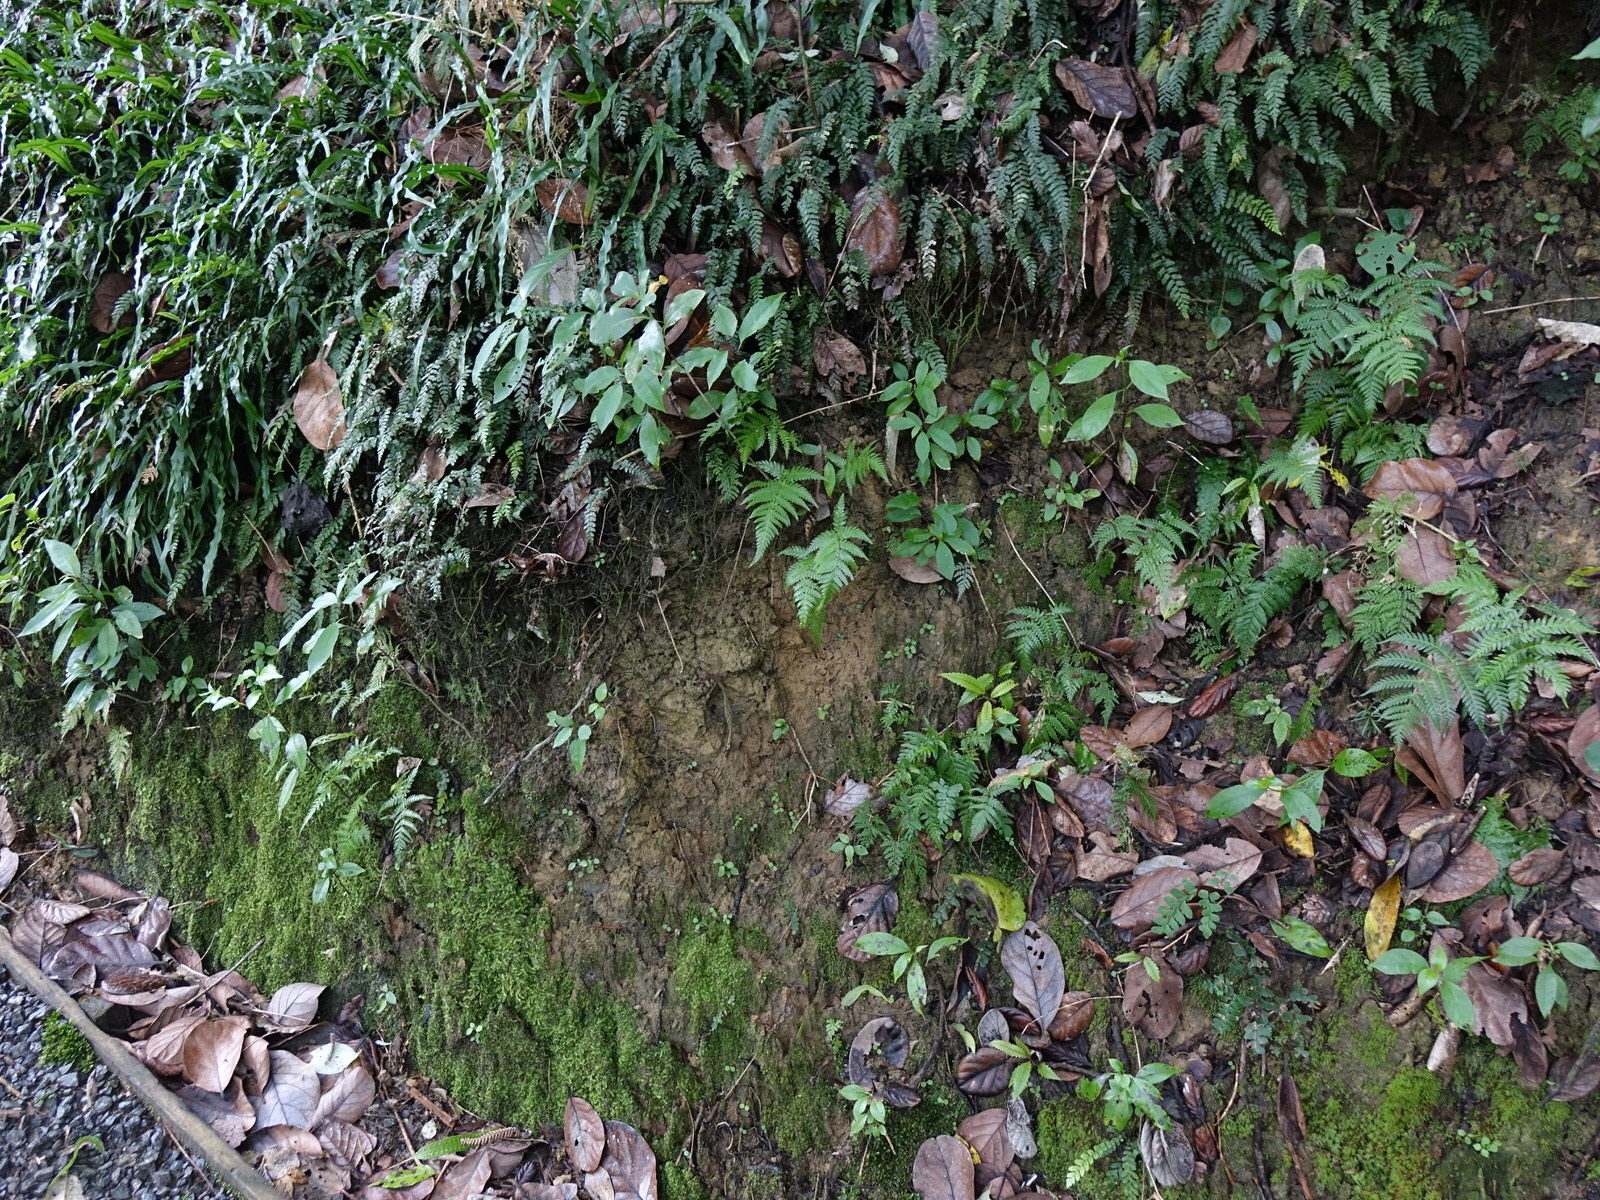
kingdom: Animalia
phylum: Arthropoda
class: Insecta
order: Diptera
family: Keroplatidae
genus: Arachnocampa
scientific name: Arachnocampa luminosa
